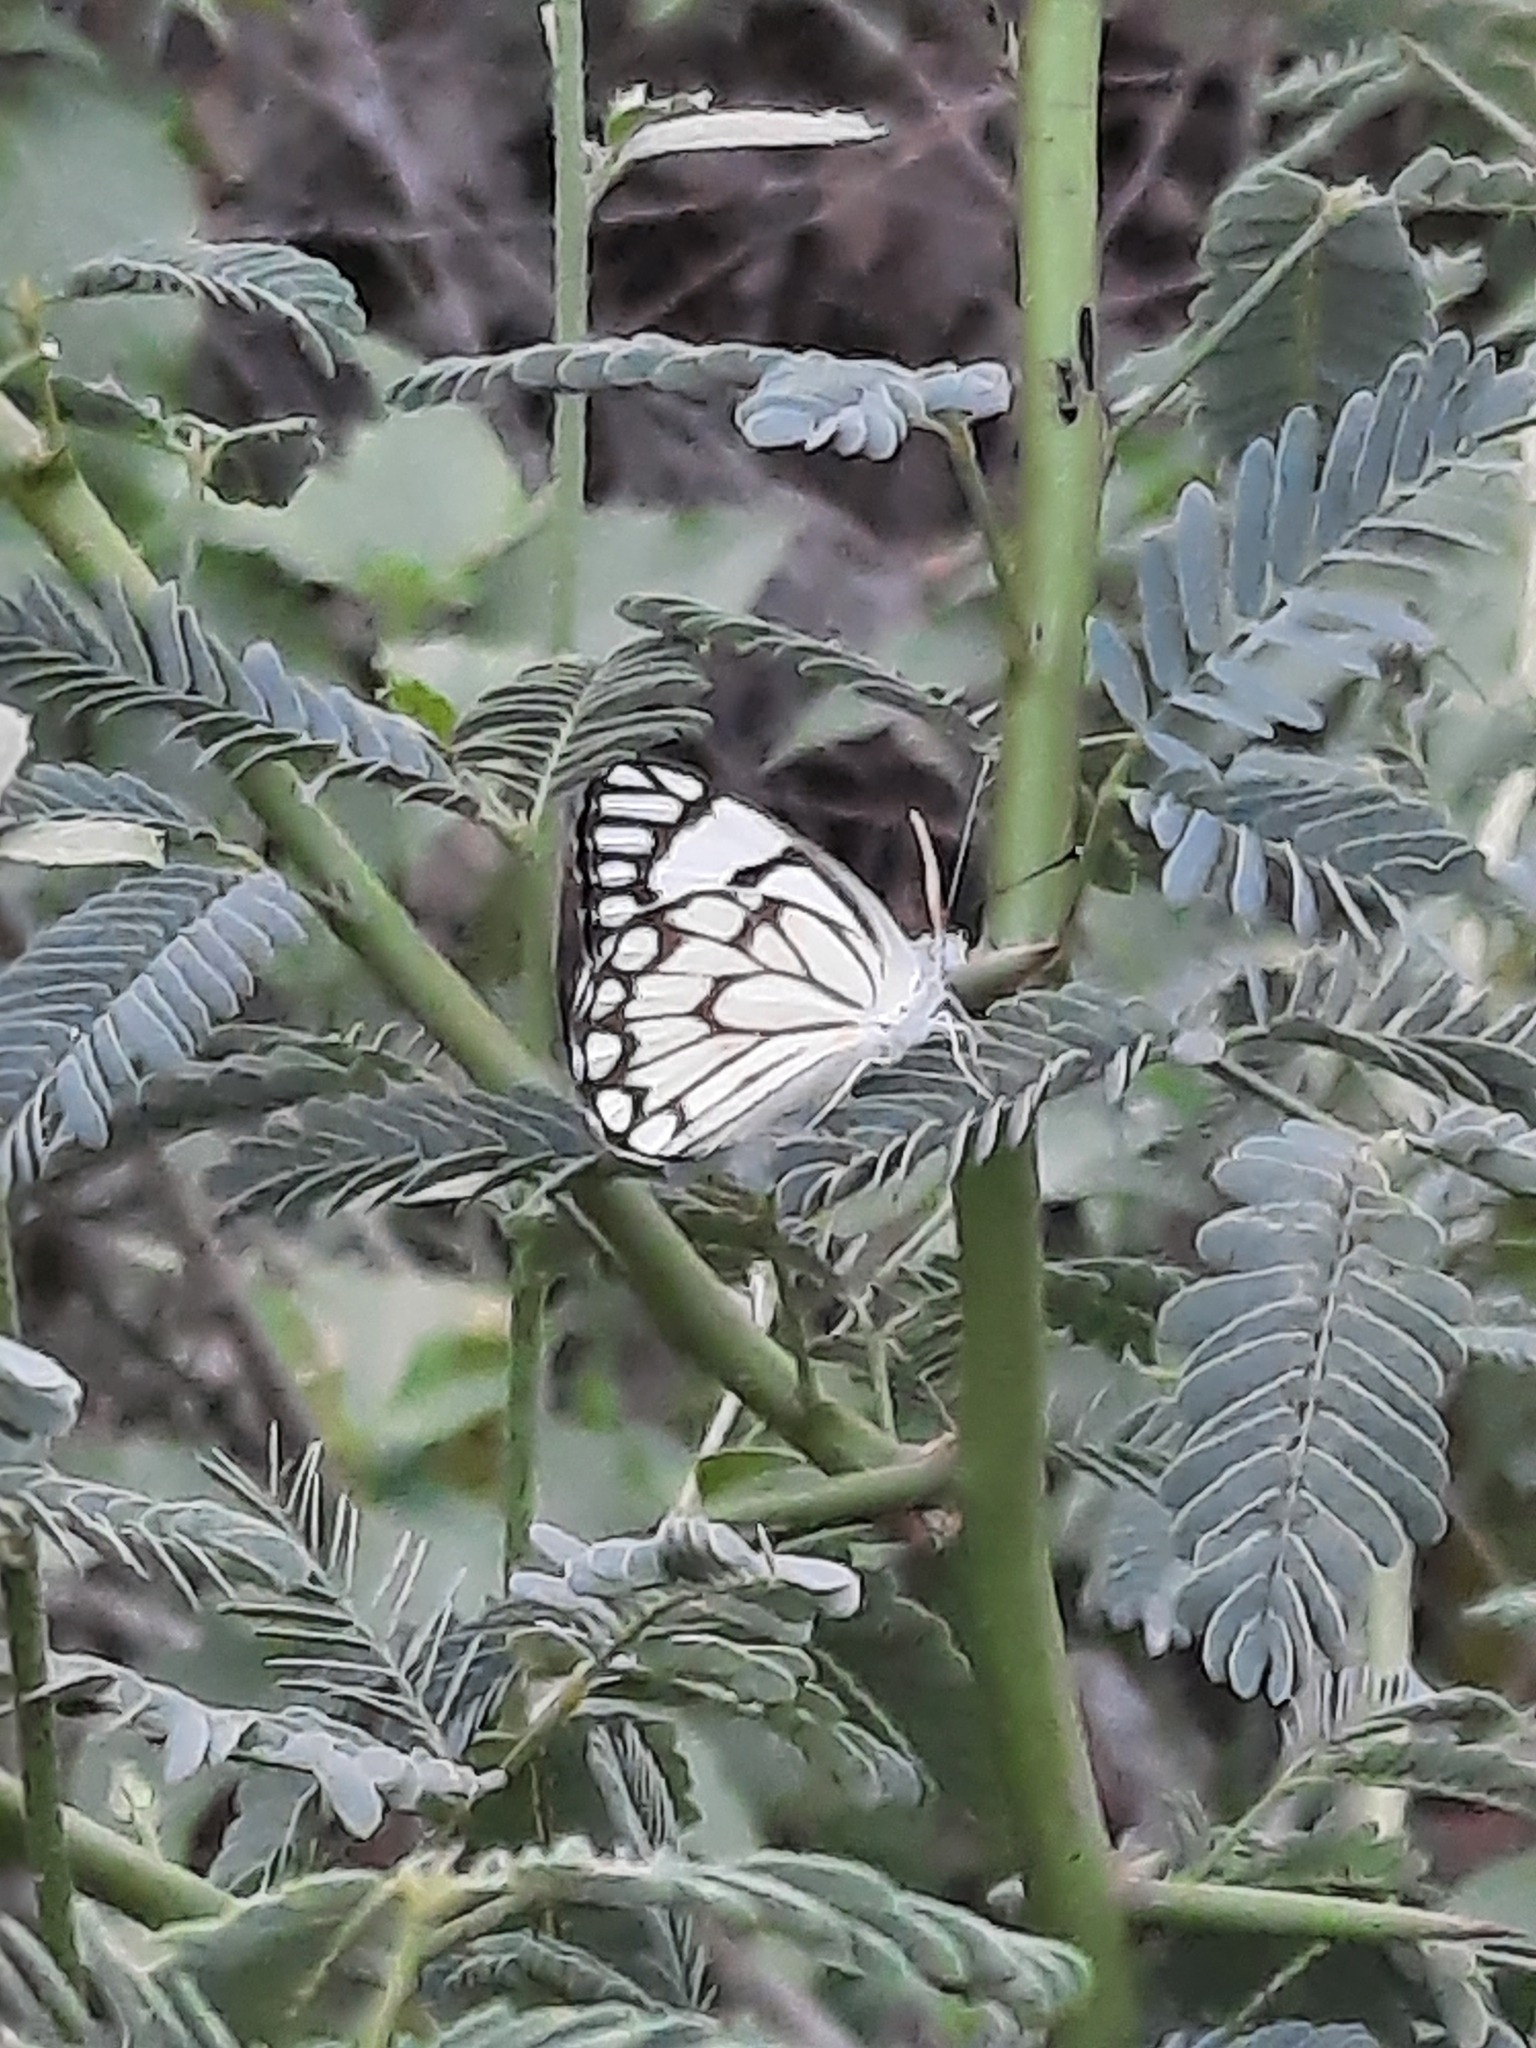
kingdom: Animalia
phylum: Arthropoda
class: Insecta
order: Lepidoptera
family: Pieridae
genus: Belenois
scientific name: Belenois aurota
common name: Brown-veined white
